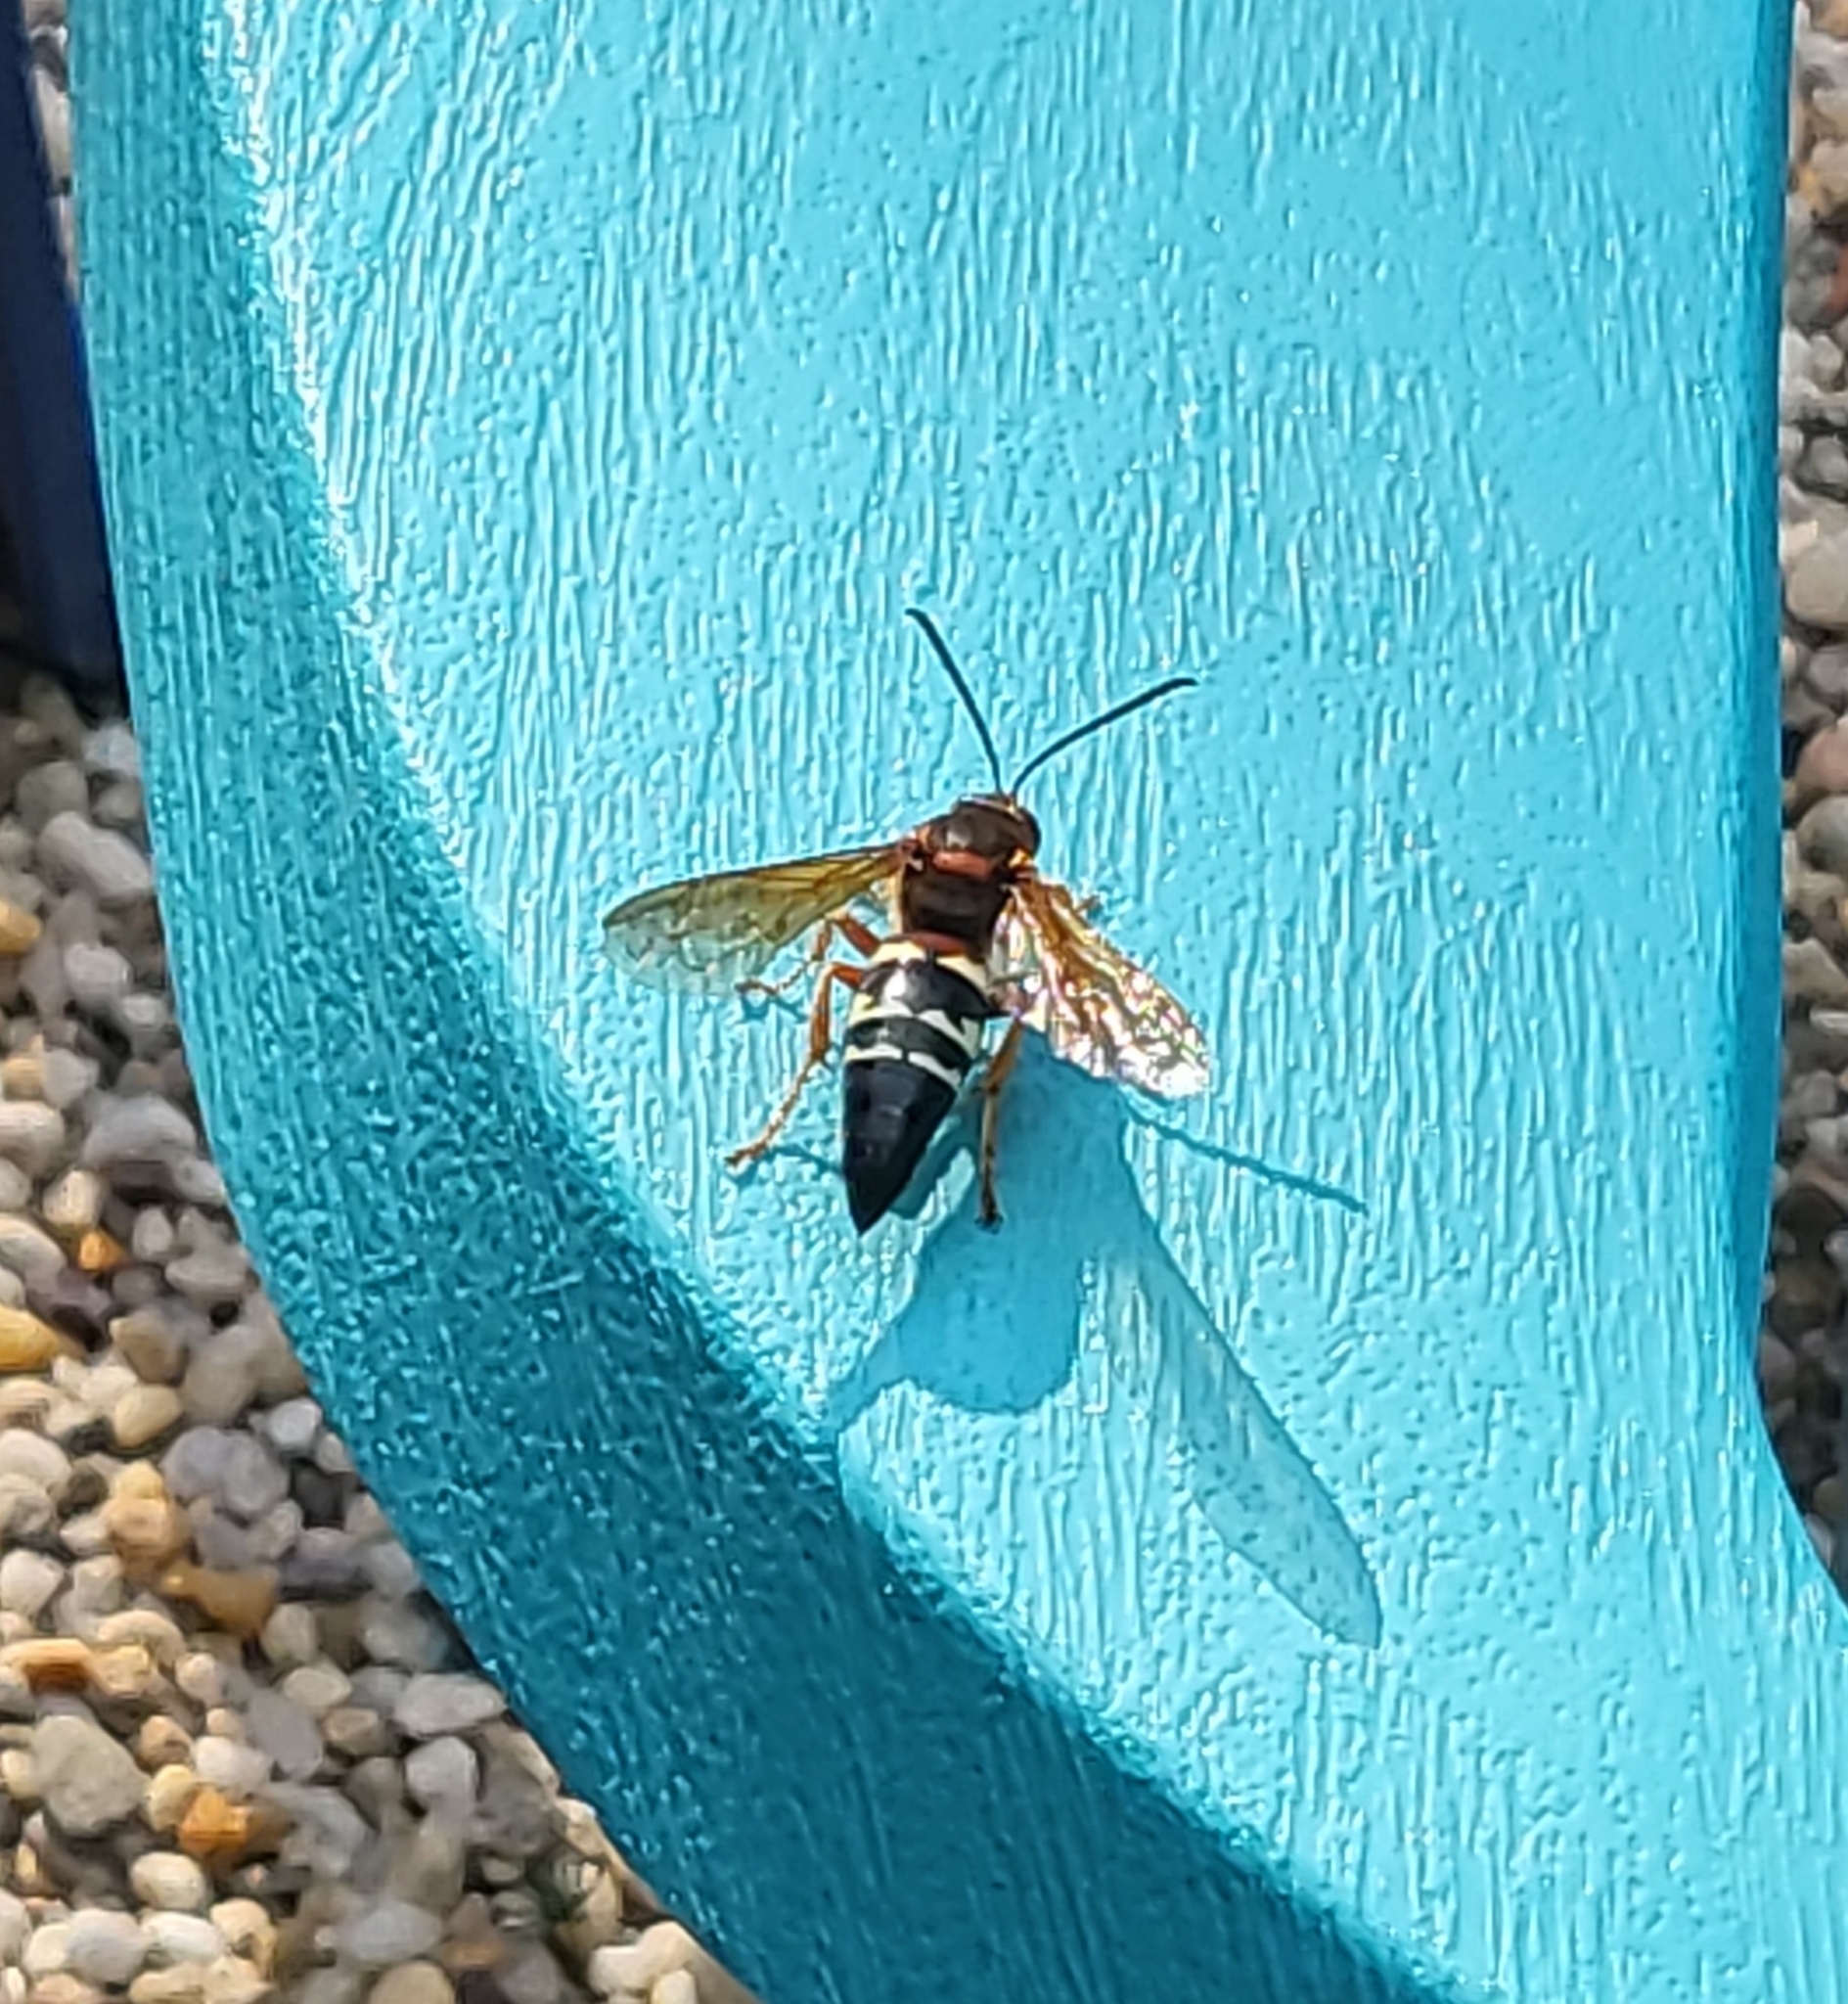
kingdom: Animalia
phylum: Arthropoda
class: Insecta
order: Hymenoptera
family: Crabronidae
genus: Sphecius
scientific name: Sphecius speciosus
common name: Cicada killer
